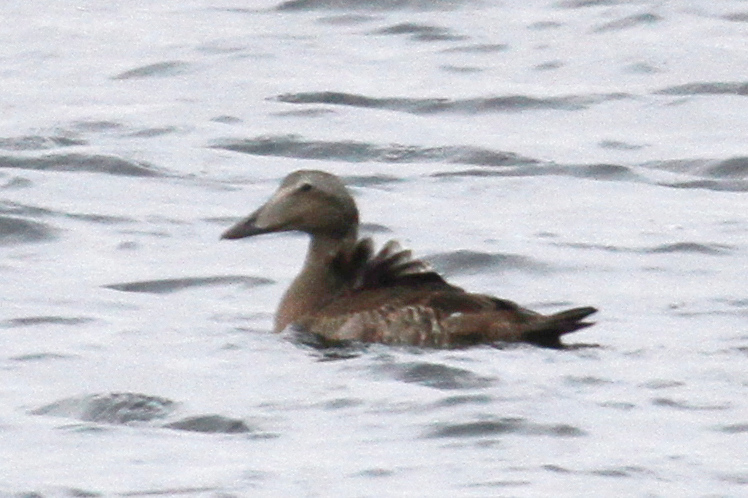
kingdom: Animalia
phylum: Chordata
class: Aves
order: Anseriformes
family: Anatidae
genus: Somateria
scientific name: Somateria mollissima
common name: Common eider
